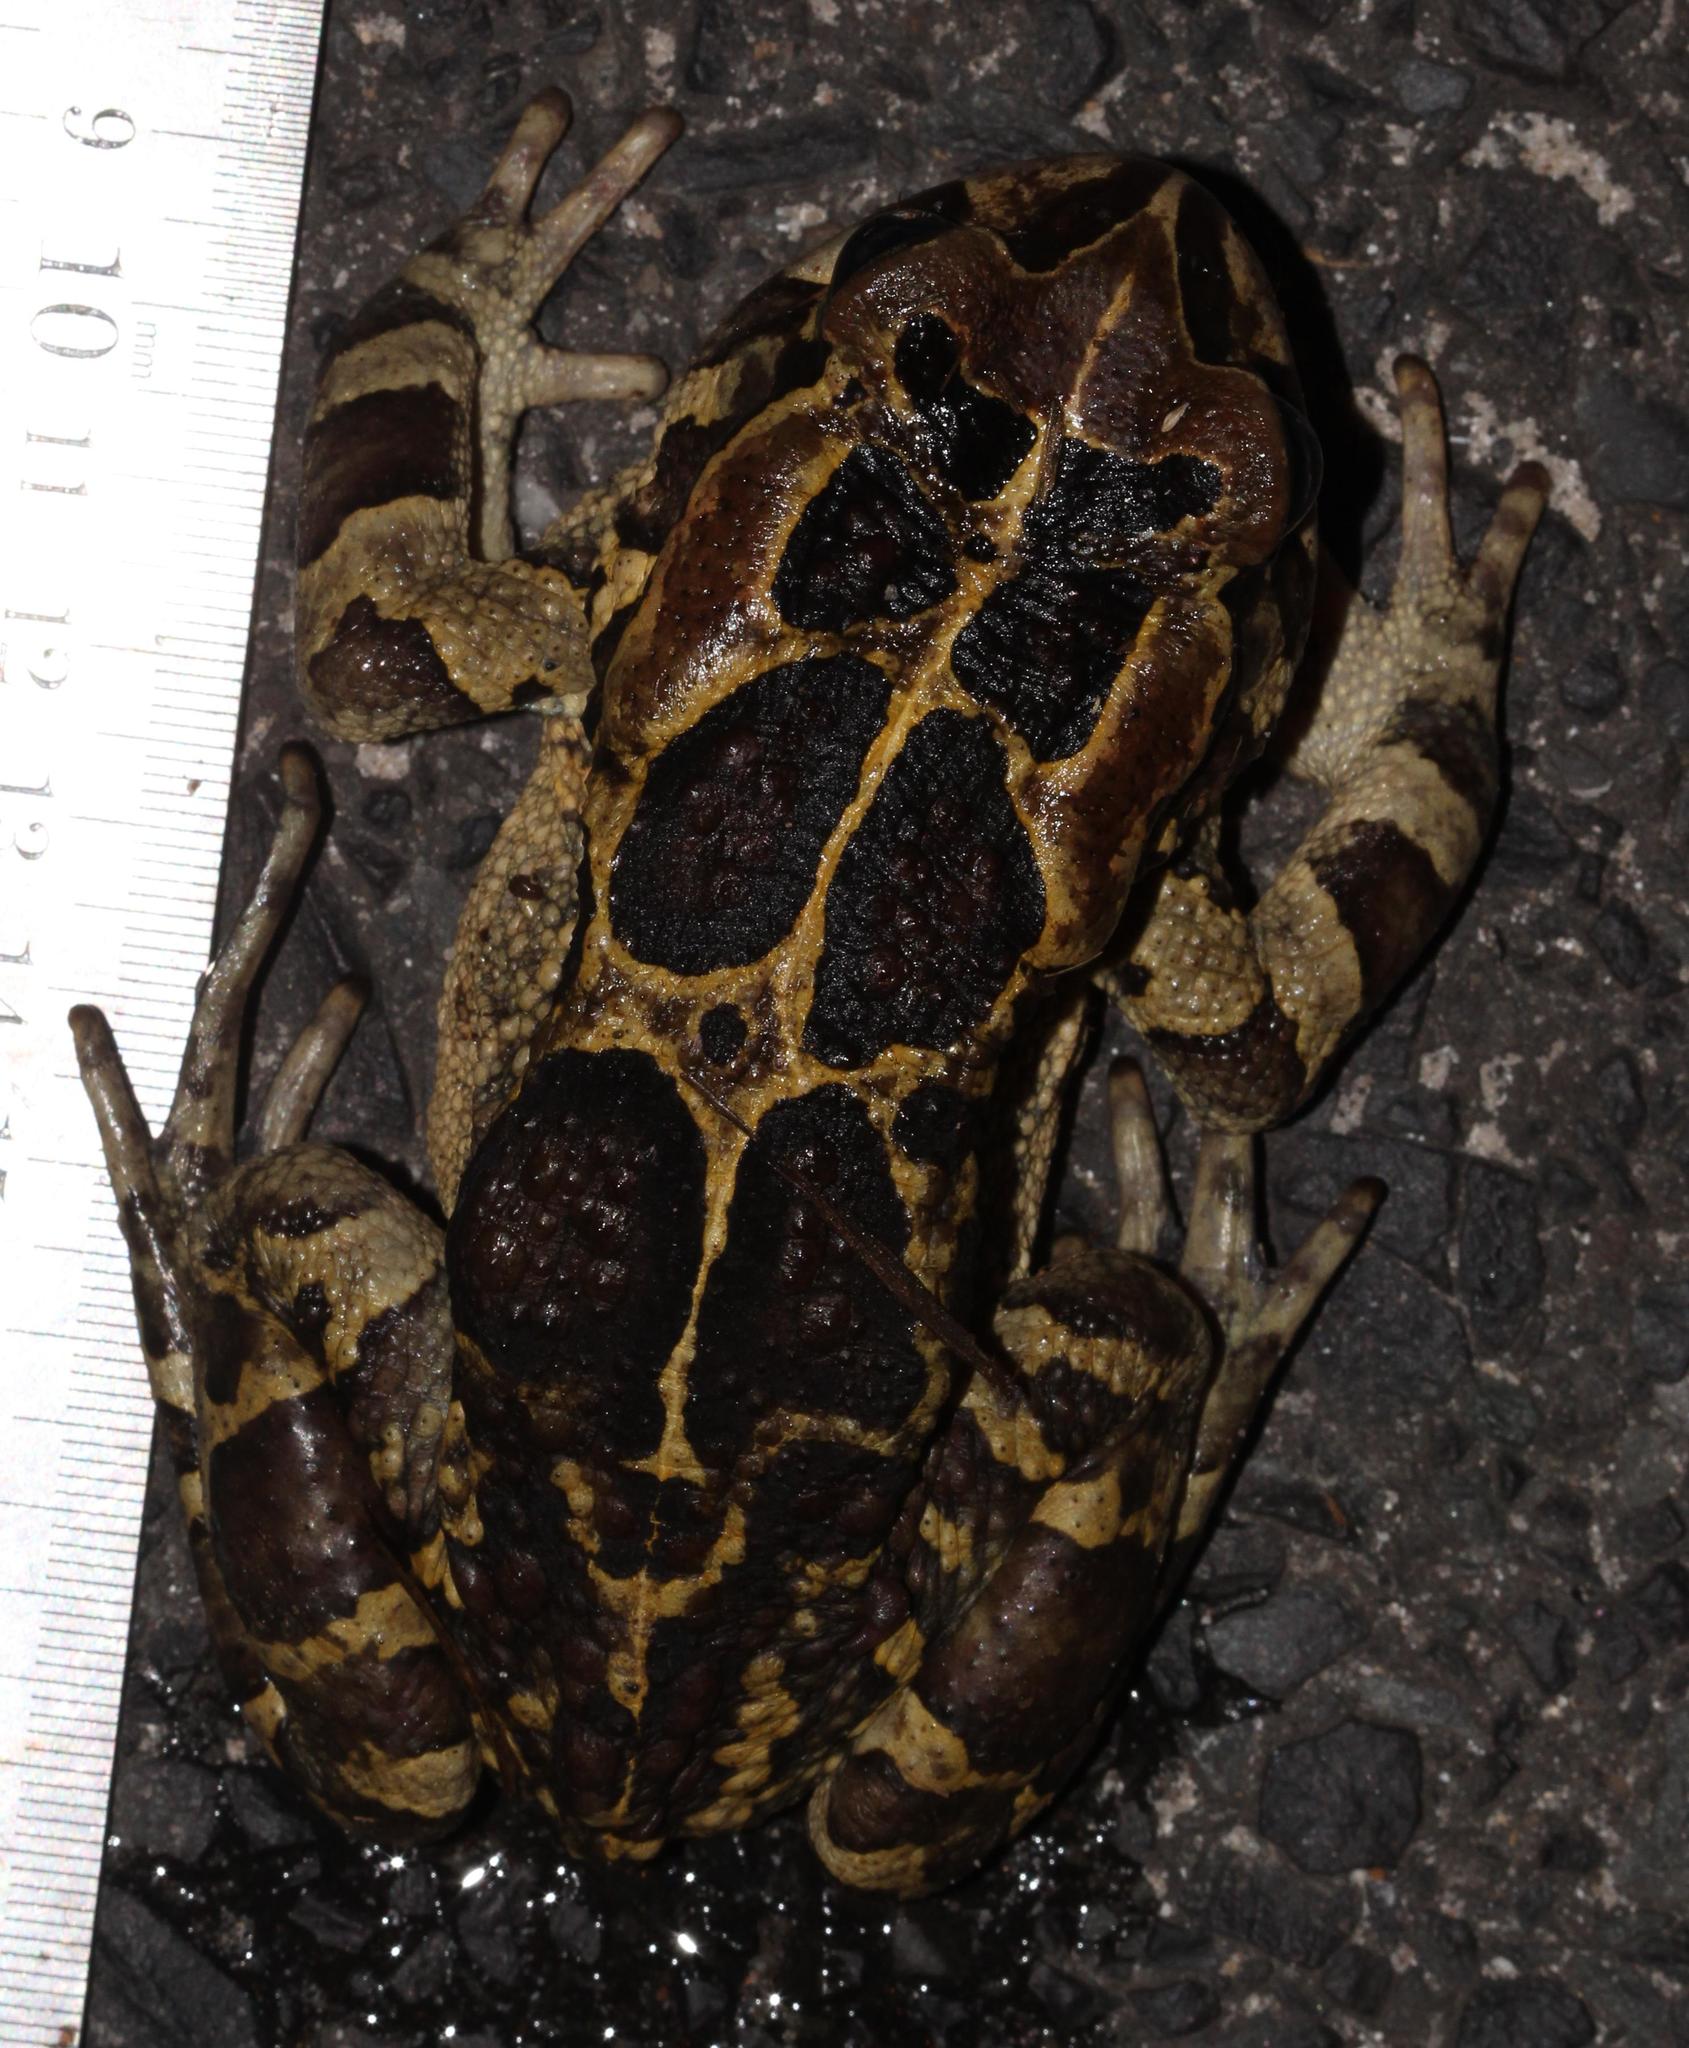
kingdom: Animalia
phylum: Chordata
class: Amphibia
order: Anura
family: Bufonidae
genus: Sclerophrys
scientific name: Sclerophrys pantherina
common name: Panther toad
